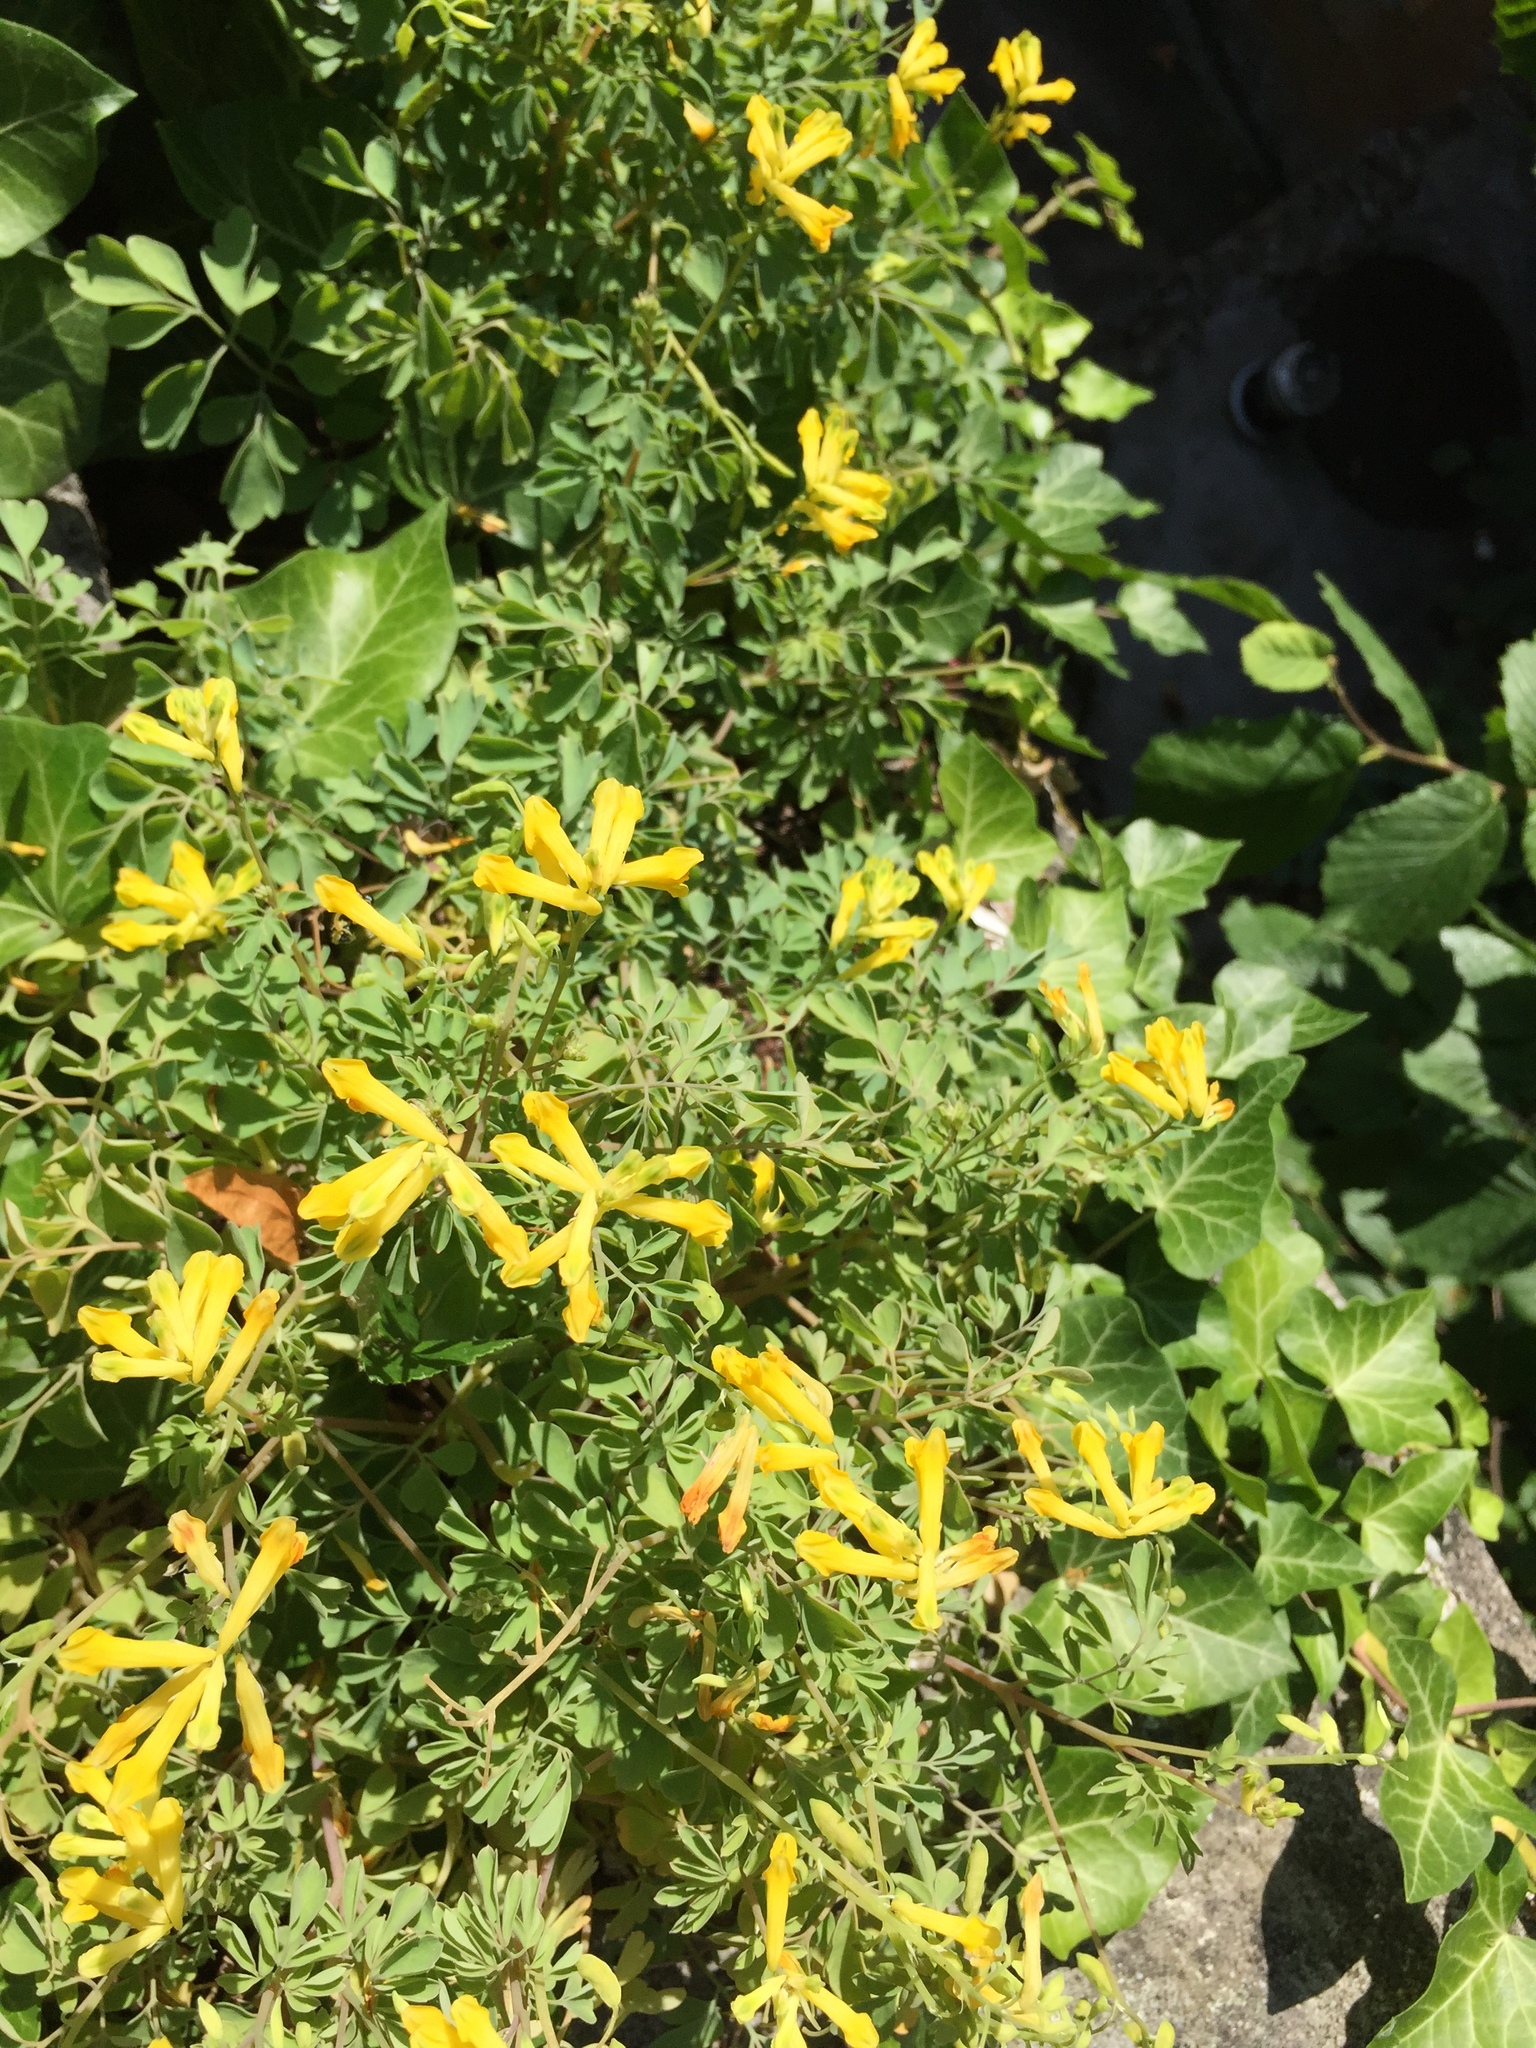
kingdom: Plantae
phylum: Tracheophyta
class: Magnoliopsida
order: Ranunculales
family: Papaveraceae
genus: Pseudofumaria
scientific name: Pseudofumaria lutea
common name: Yellow corydalis
